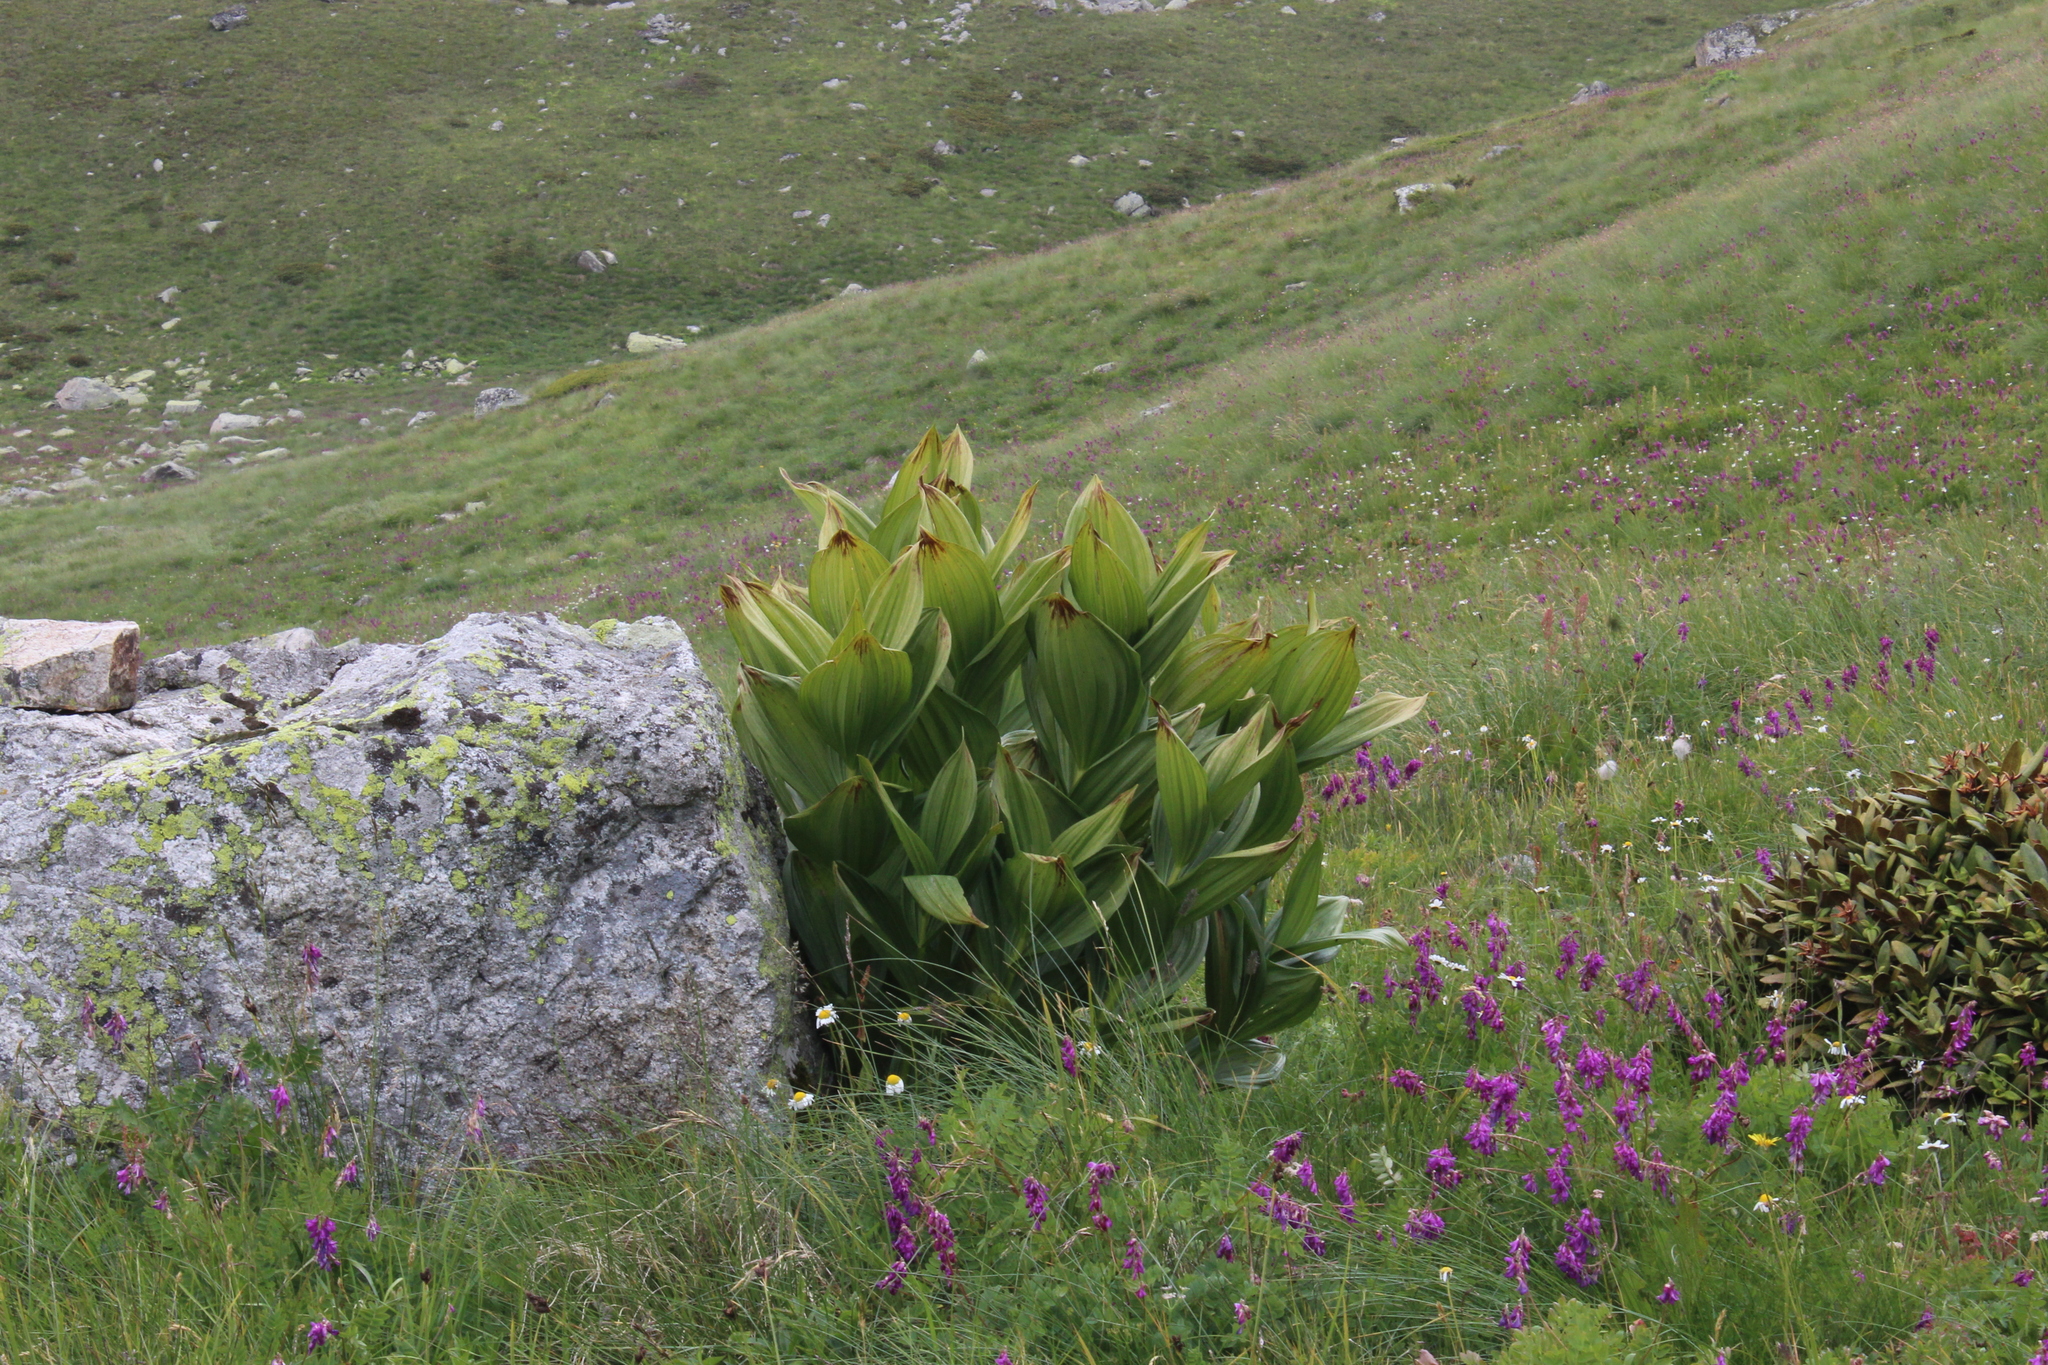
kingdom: Plantae
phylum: Tracheophyta
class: Liliopsida
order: Liliales
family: Melanthiaceae
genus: Veratrum
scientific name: Veratrum lobelianum
